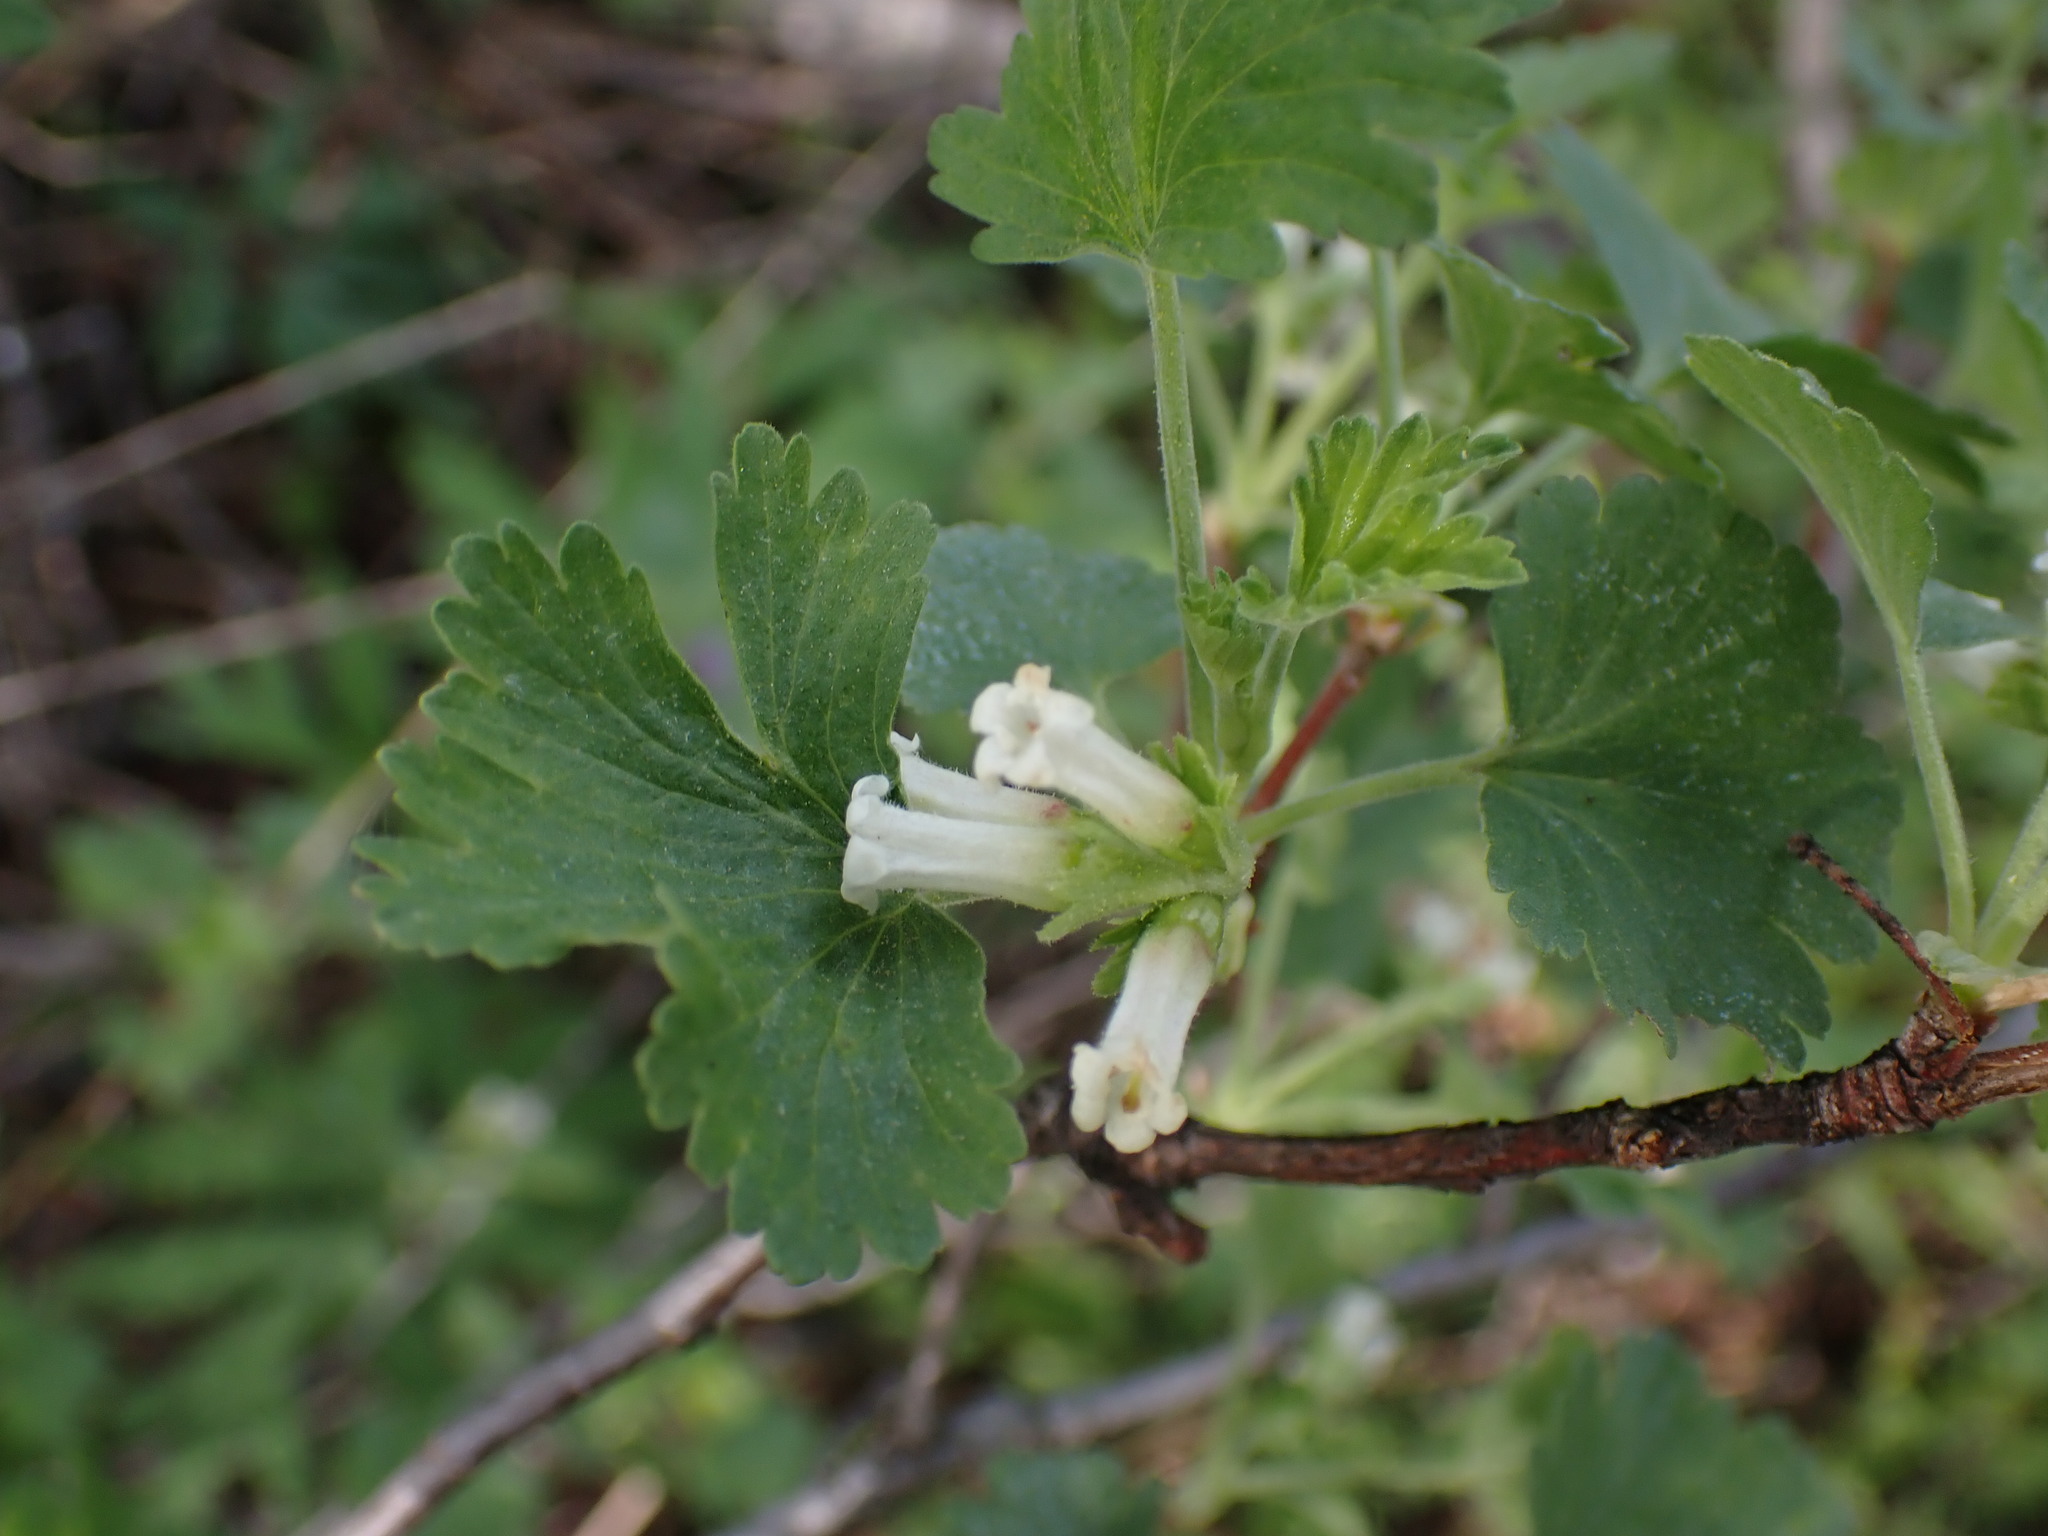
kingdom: Plantae
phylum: Tracheophyta
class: Magnoliopsida
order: Saxifragales
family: Grossulariaceae
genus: Ribes
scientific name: Ribes cereum
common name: Wax currant
